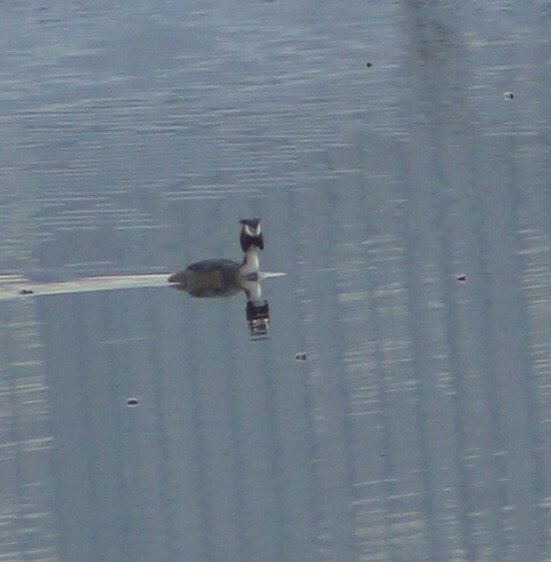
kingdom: Animalia
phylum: Chordata
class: Aves
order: Podicipediformes
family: Podicipedidae
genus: Podiceps
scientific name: Podiceps cristatus
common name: Great crested grebe
